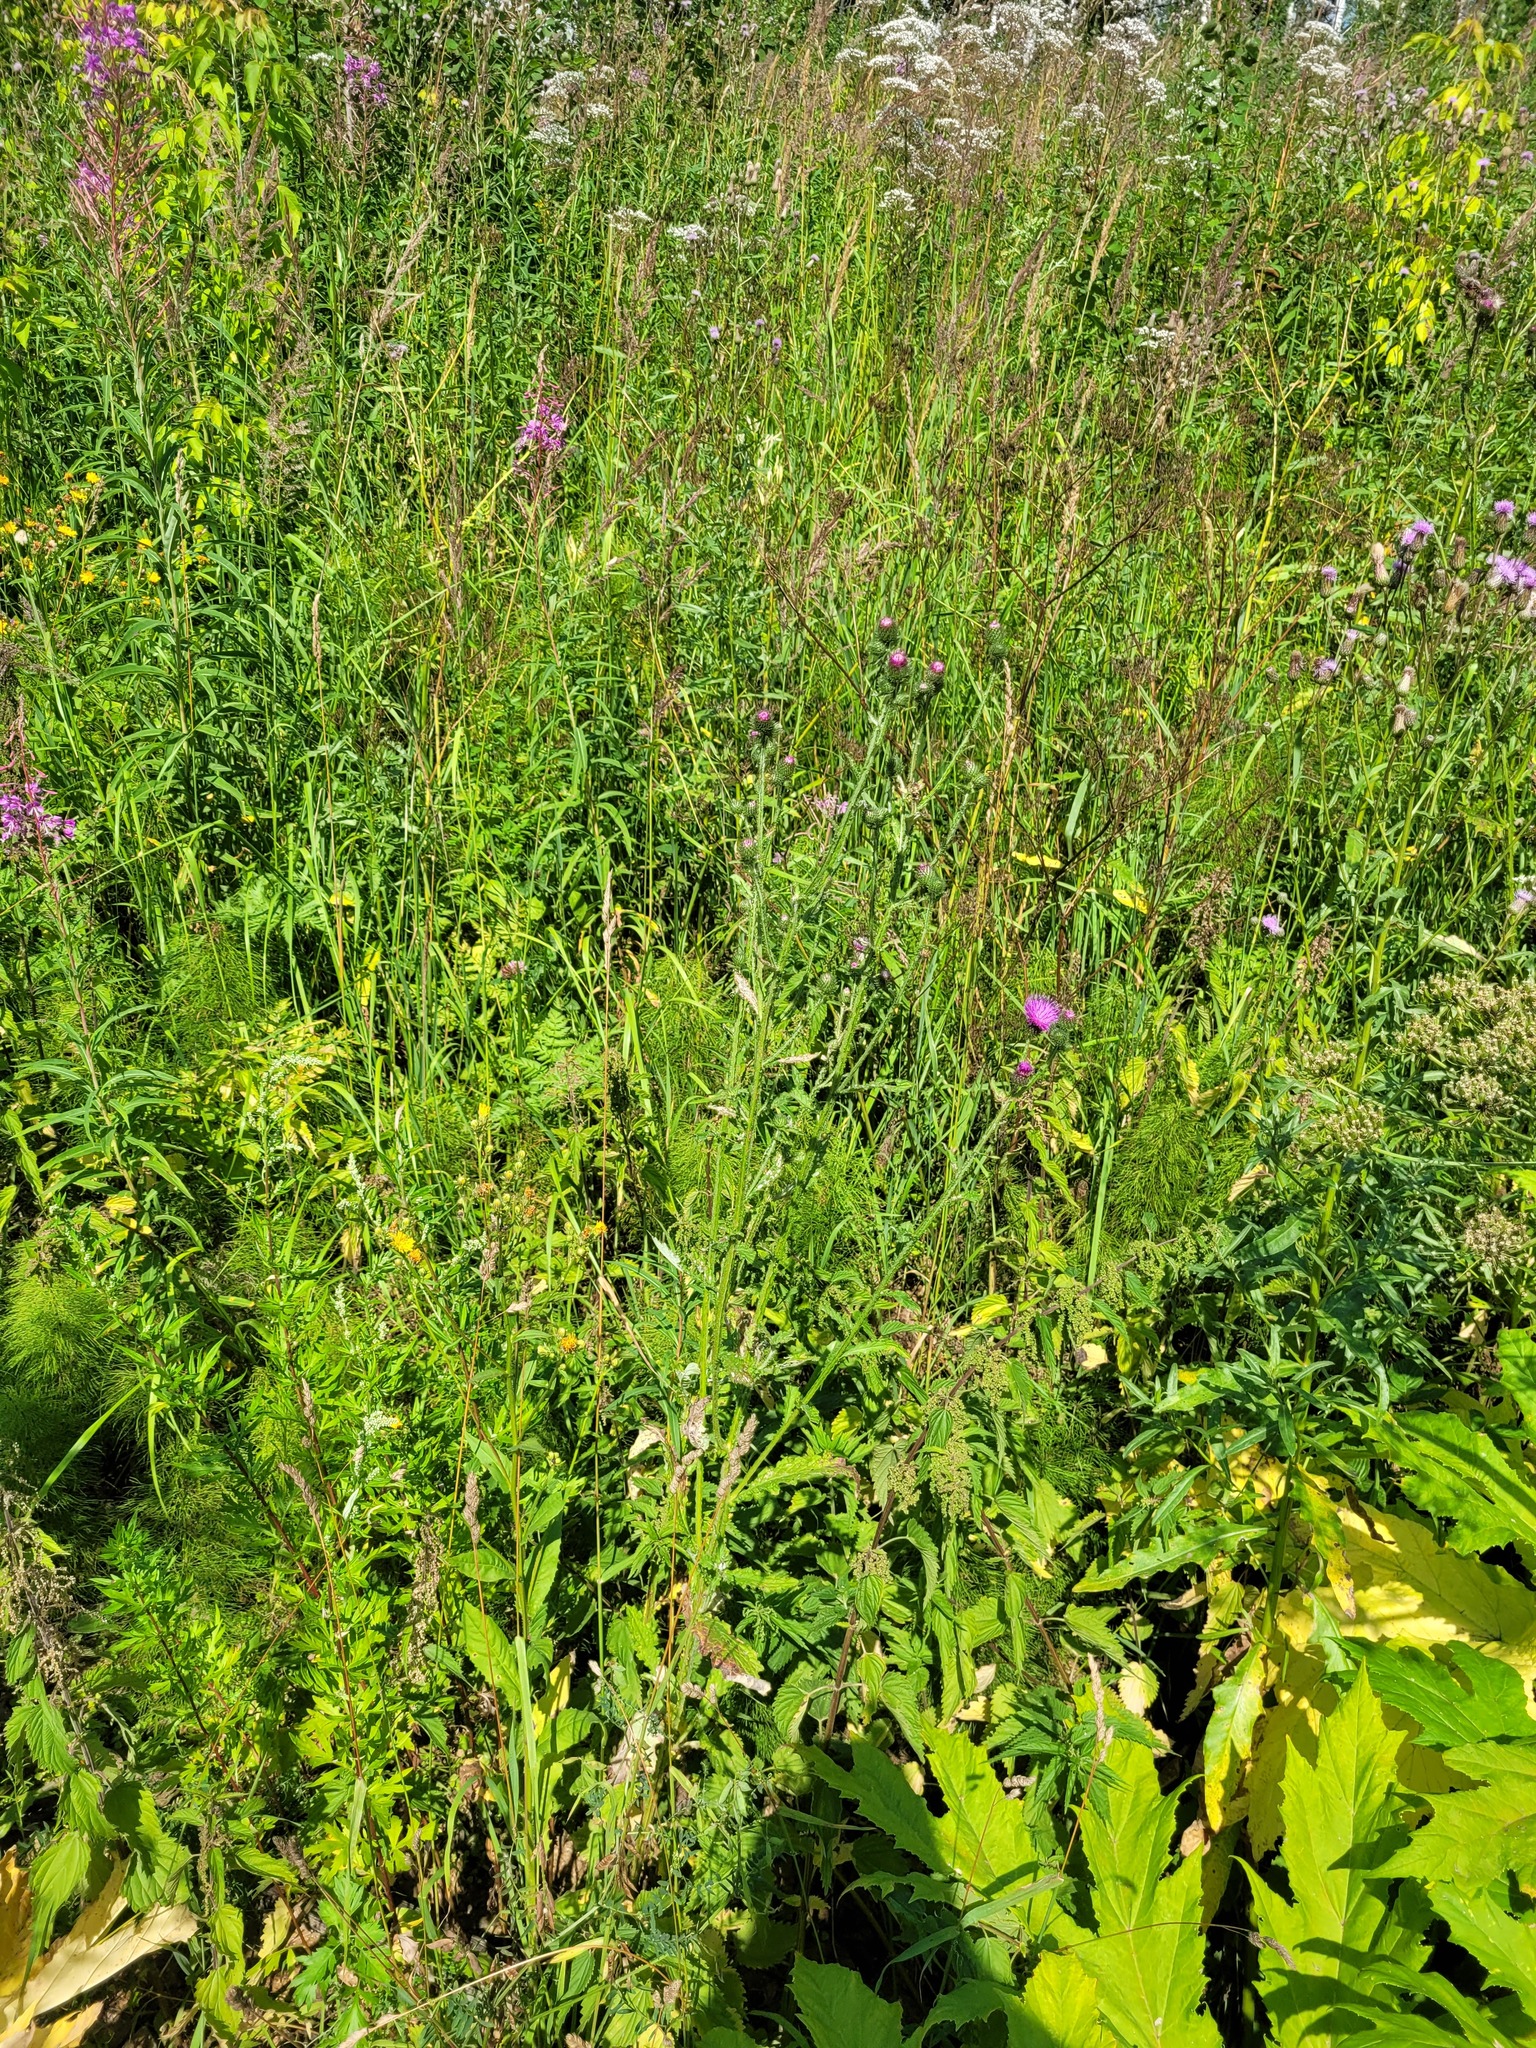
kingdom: Plantae
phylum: Tracheophyta
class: Magnoliopsida
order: Asterales
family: Asteraceae
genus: Carduus
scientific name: Carduus crispus
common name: Welted thistle
